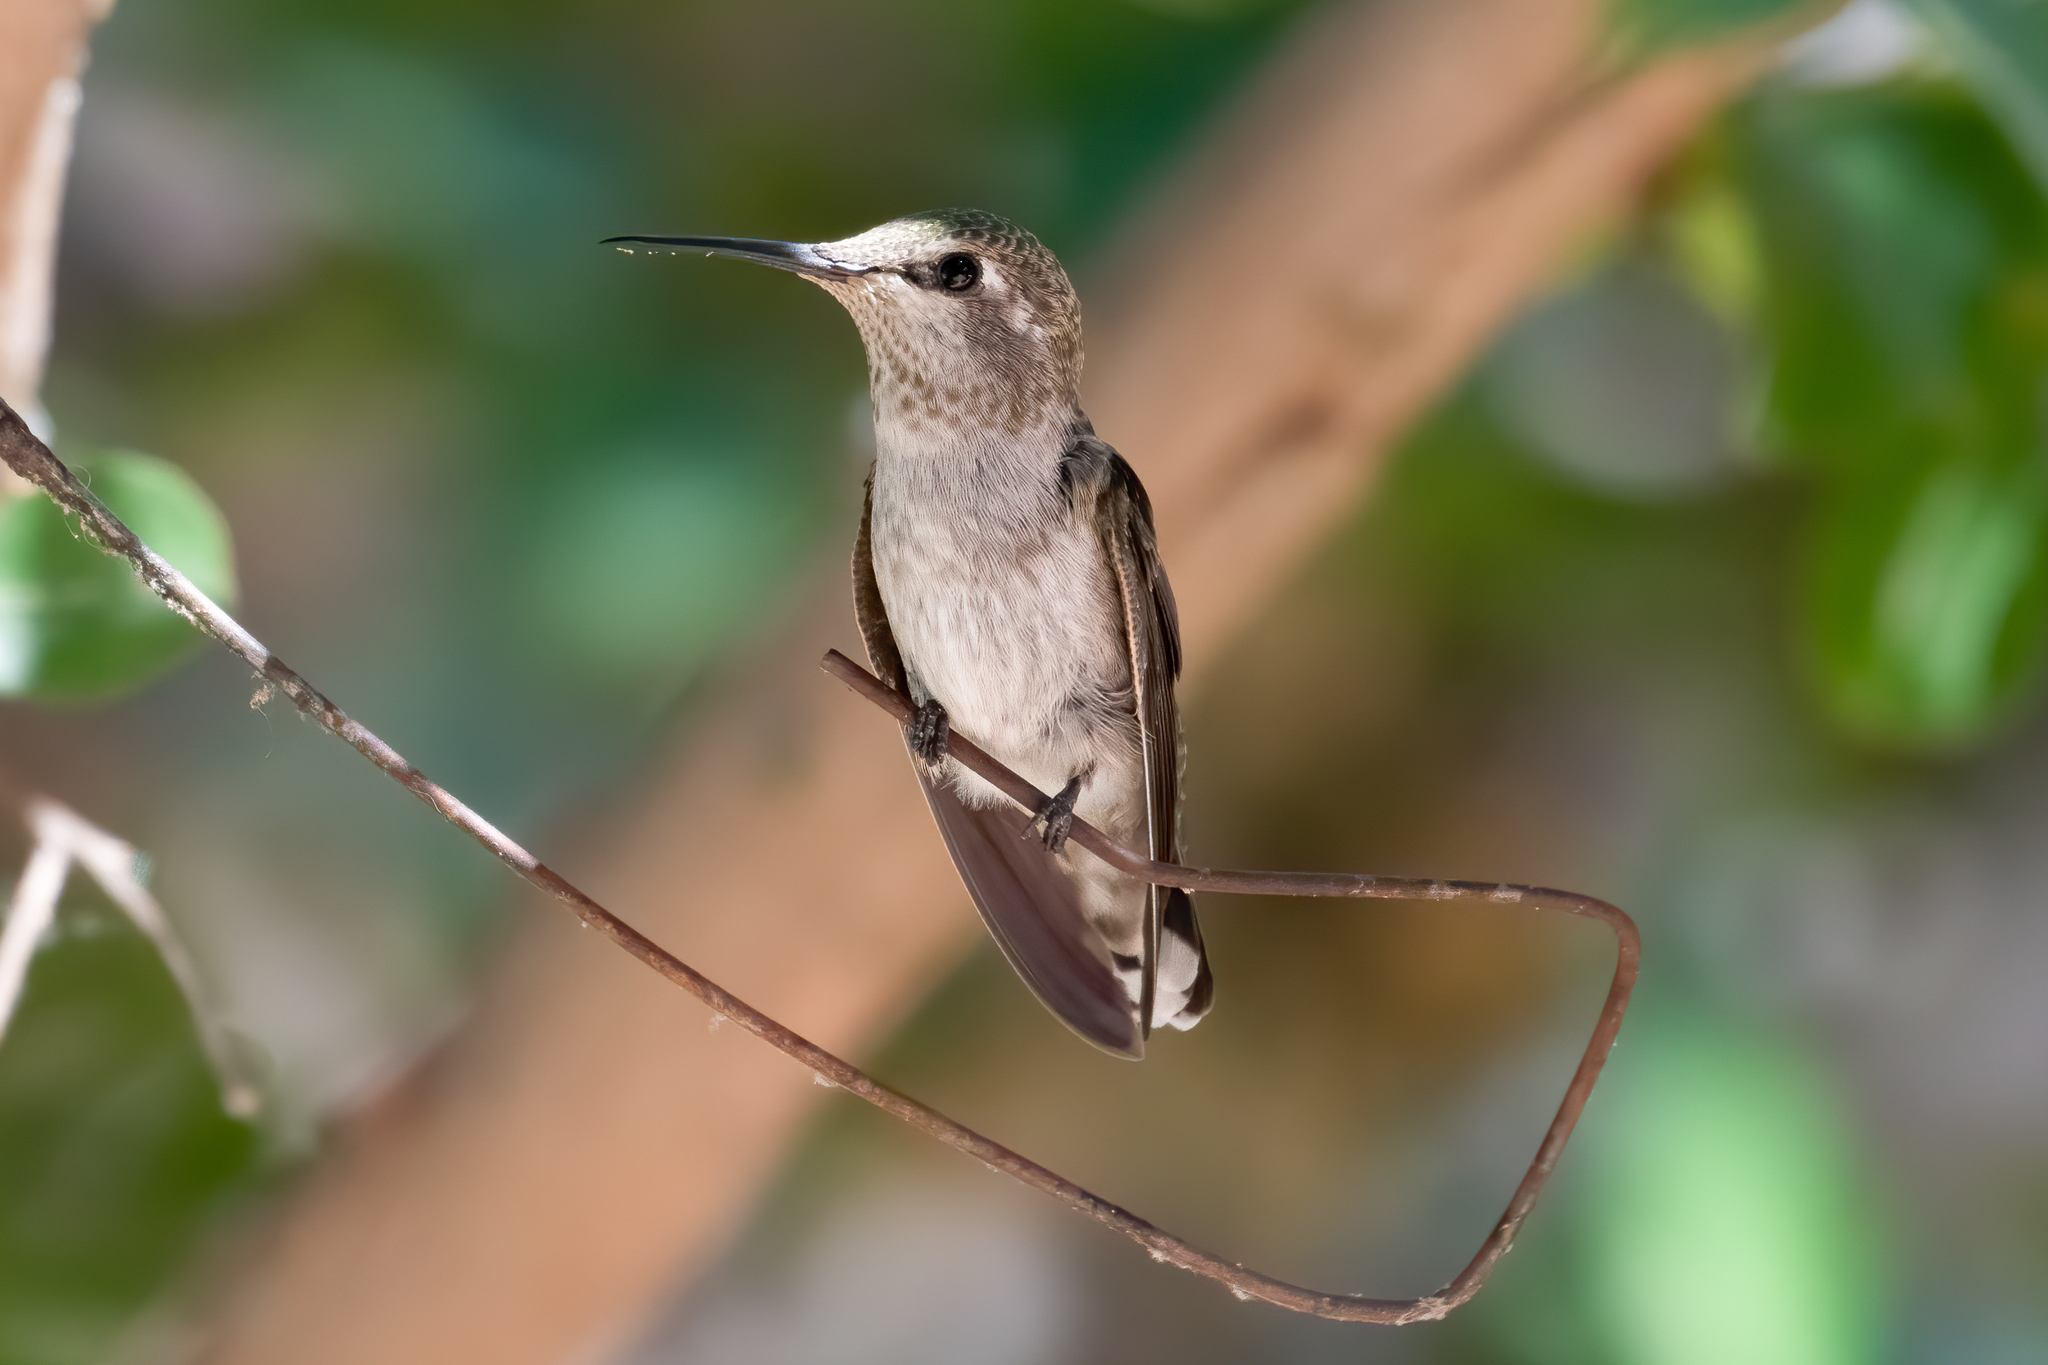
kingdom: Animalia
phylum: Chordata
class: Aves
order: Apodiformes
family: Trochilidae
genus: Calypte
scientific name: Calypte anna
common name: Anna's hummingbird
